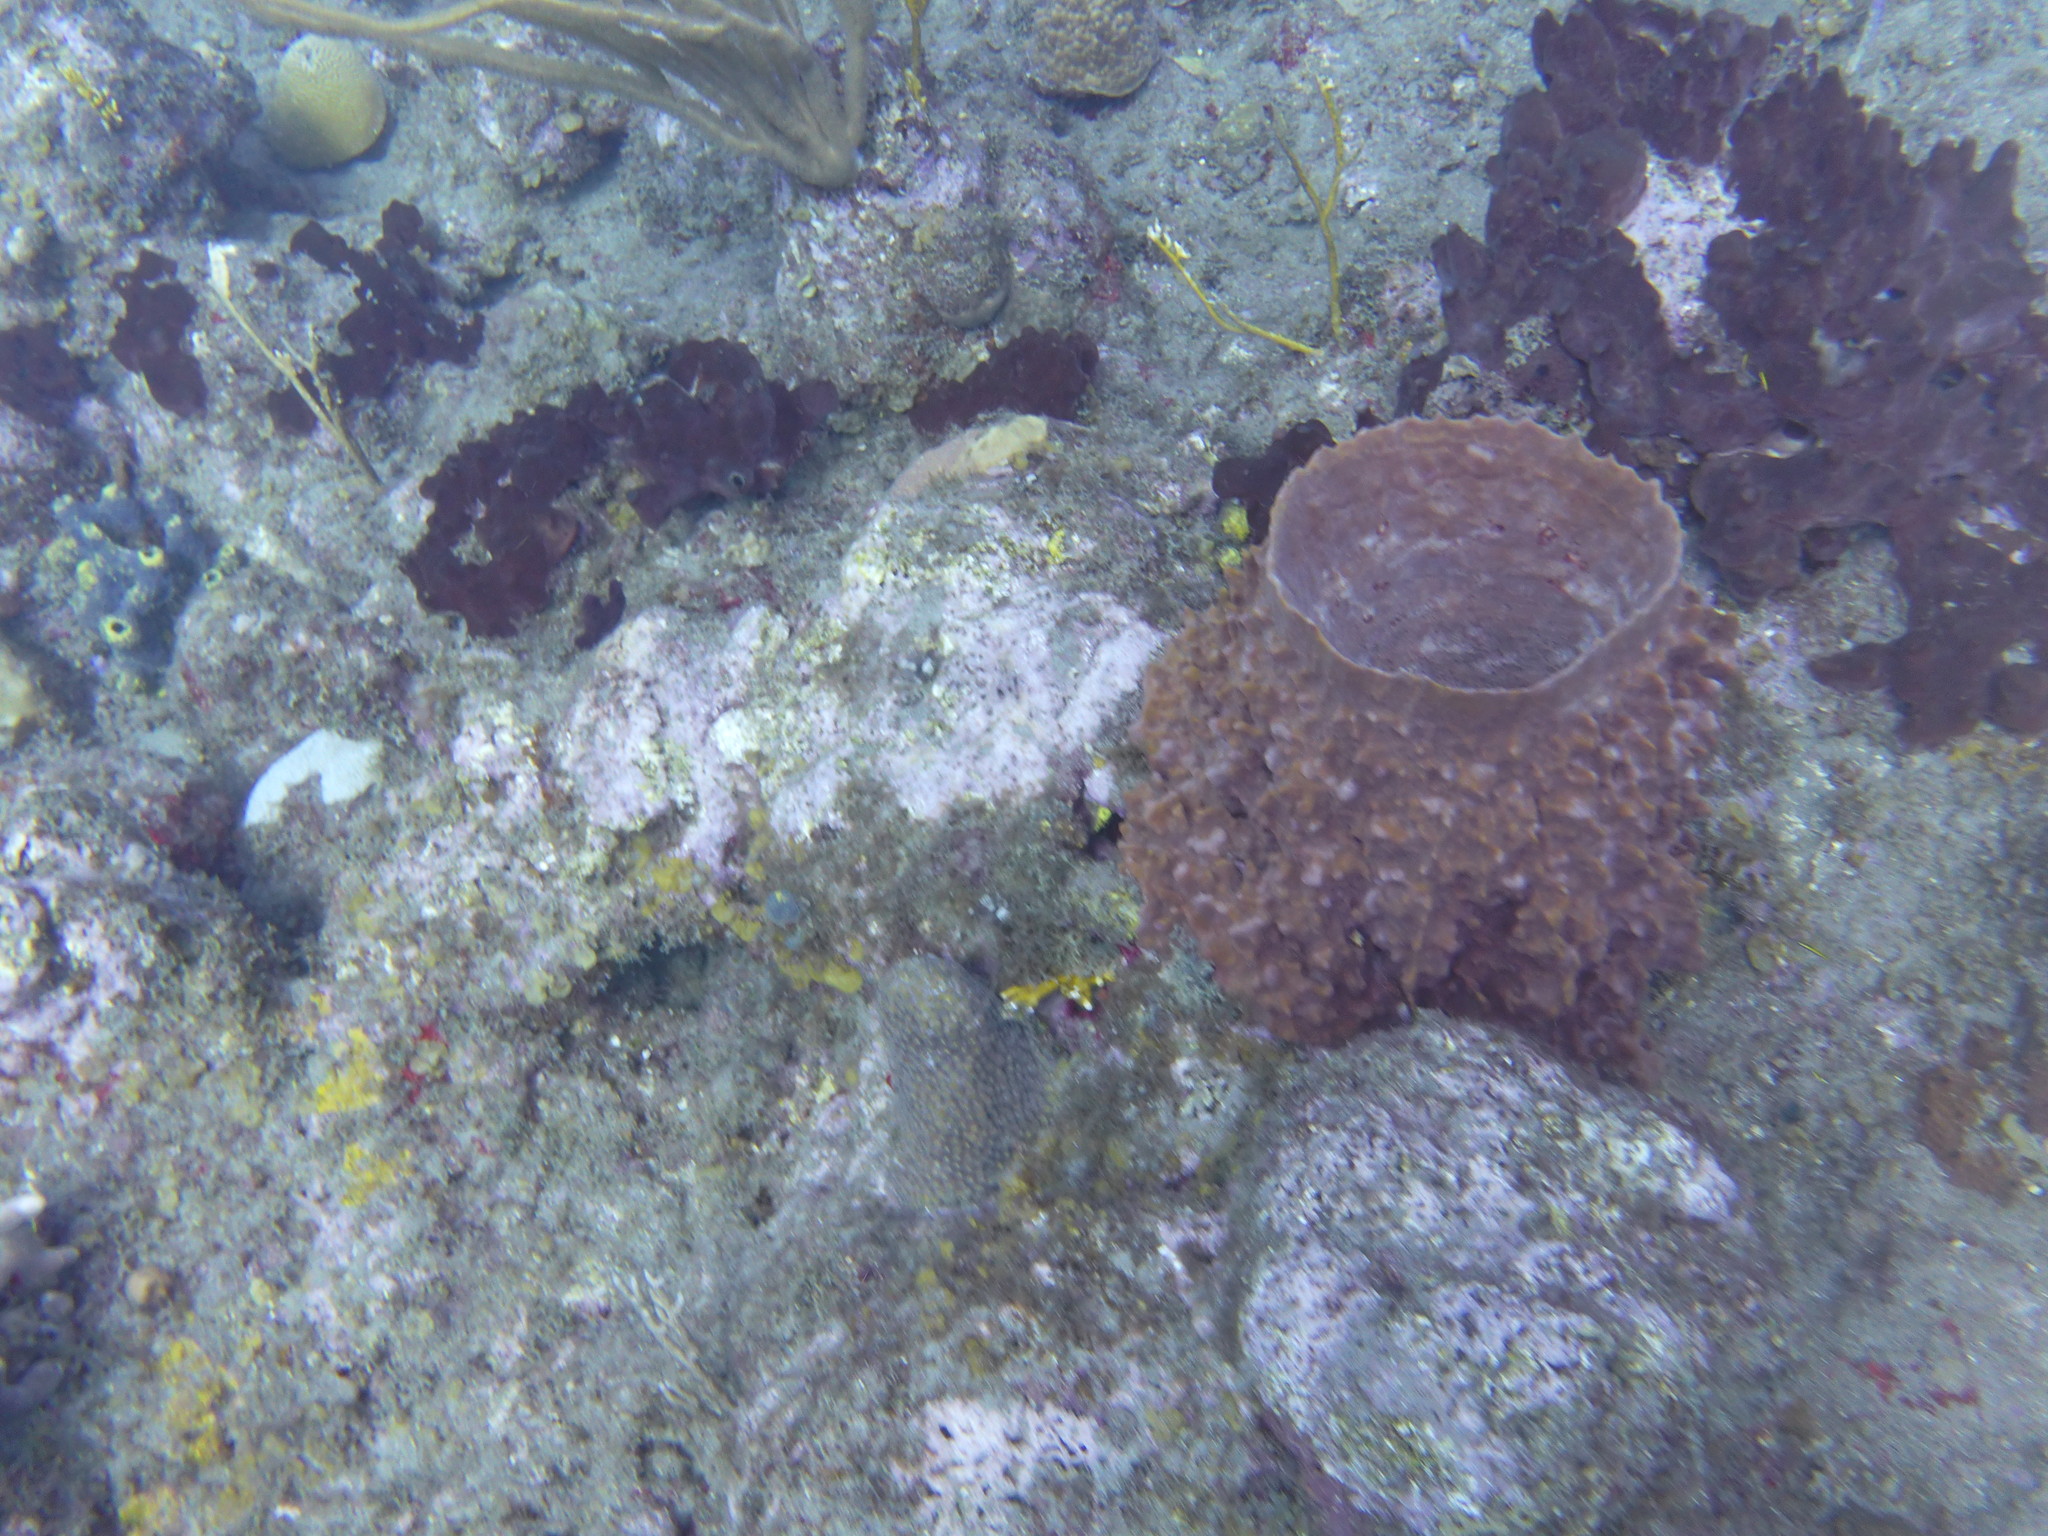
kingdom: Animalia
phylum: Porifera
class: Demospongiae
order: Haplosclerida
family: Petrosiidae
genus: Xestospongia
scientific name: Xestospongia muta
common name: Giant barrel sponge
